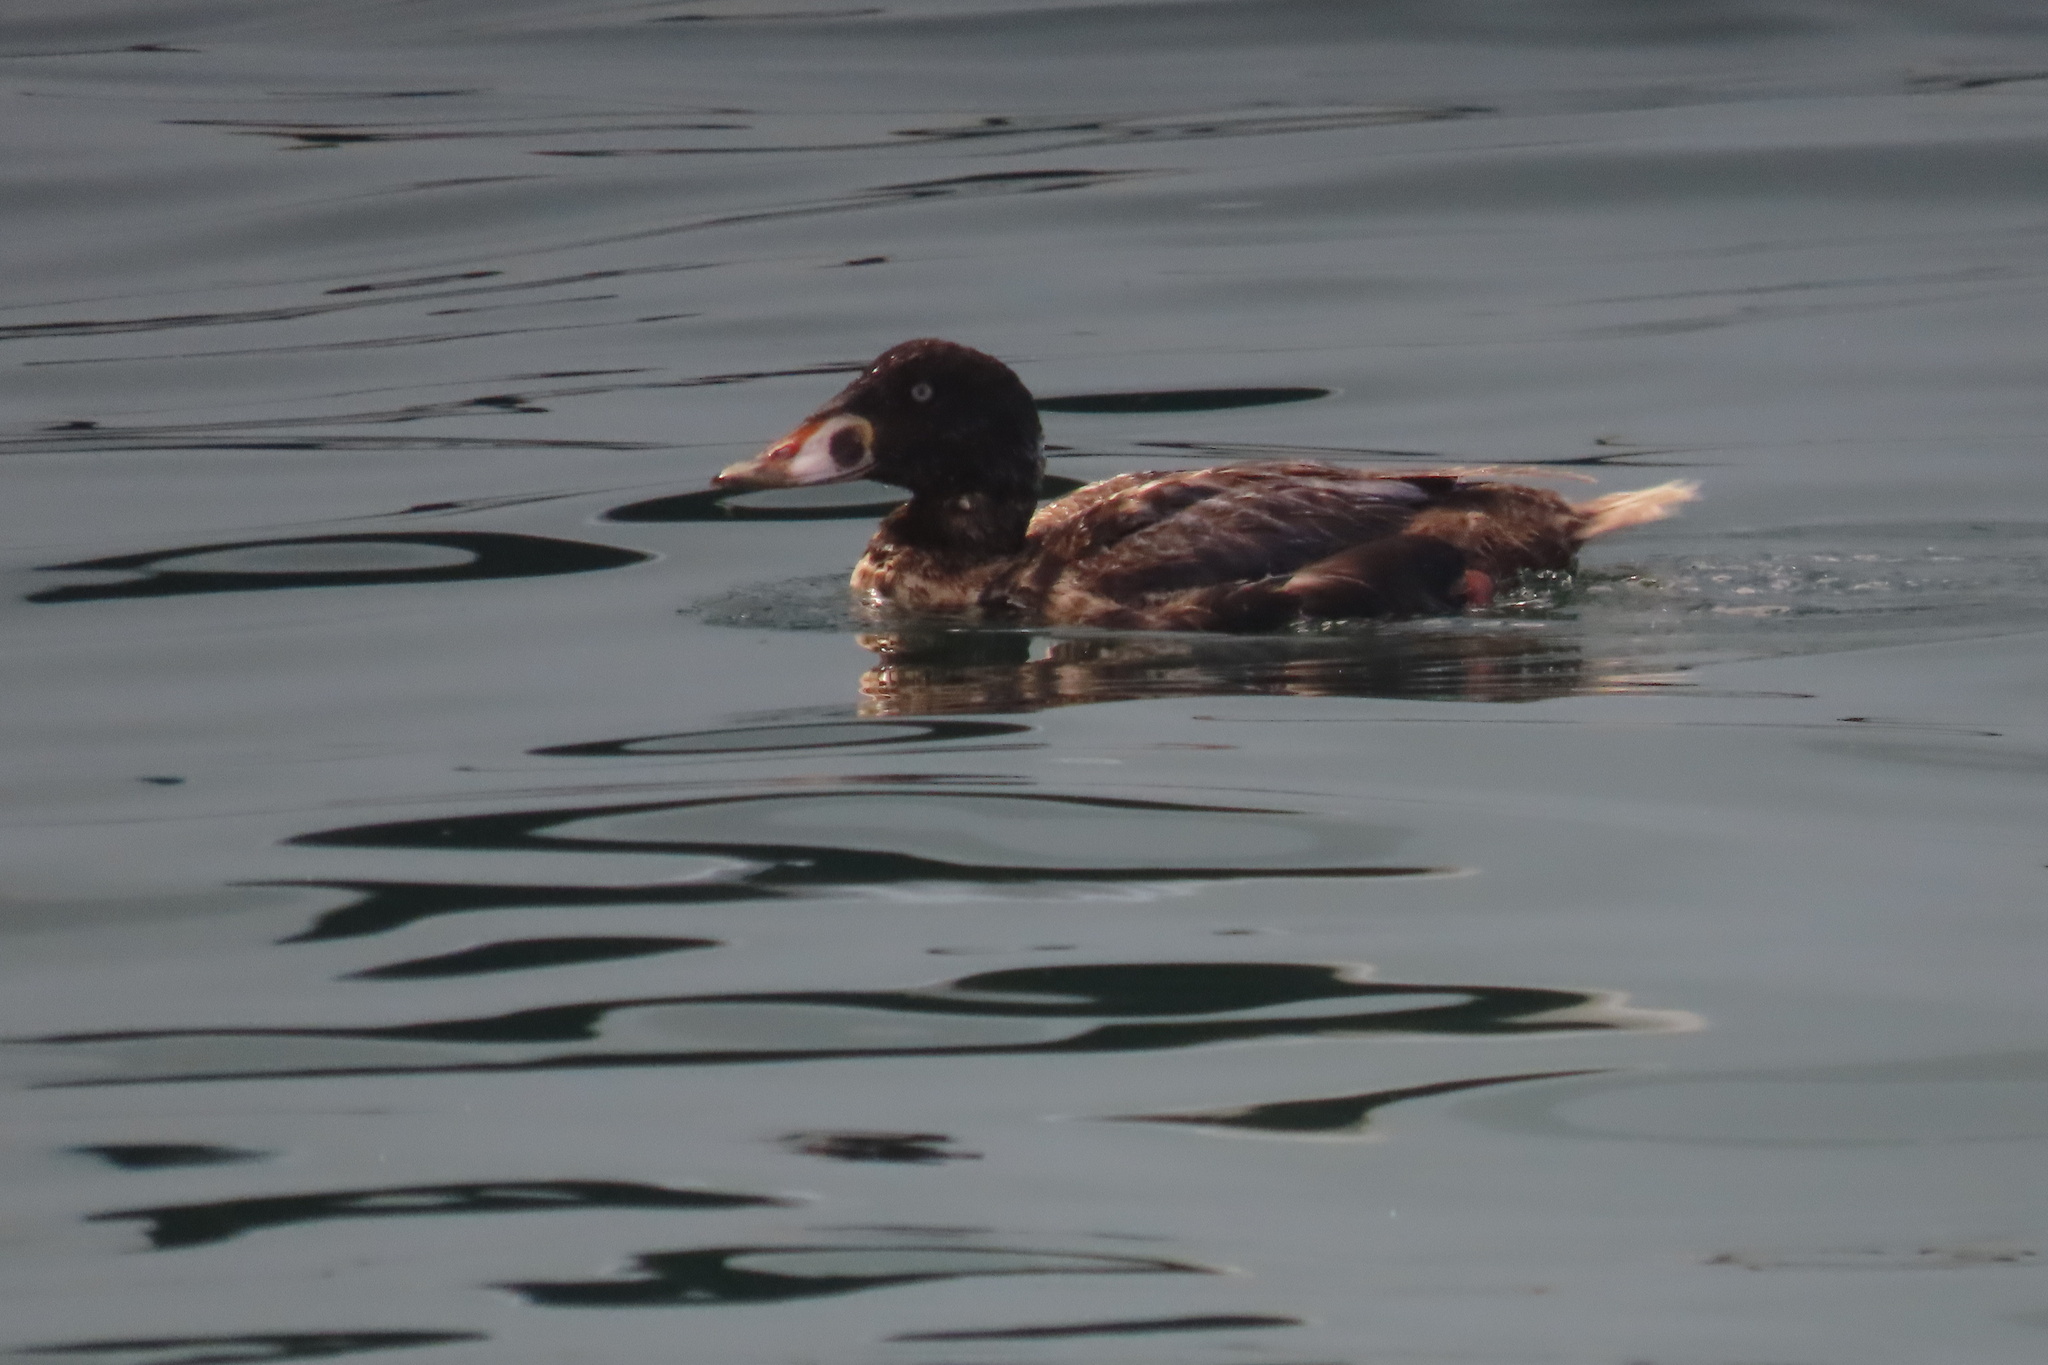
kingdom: Animalia
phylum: Chordata
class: Aves
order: Anseriformes
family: Anatidae
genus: Melanitta
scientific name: Melanitta perspicillata
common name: Surf scoter
